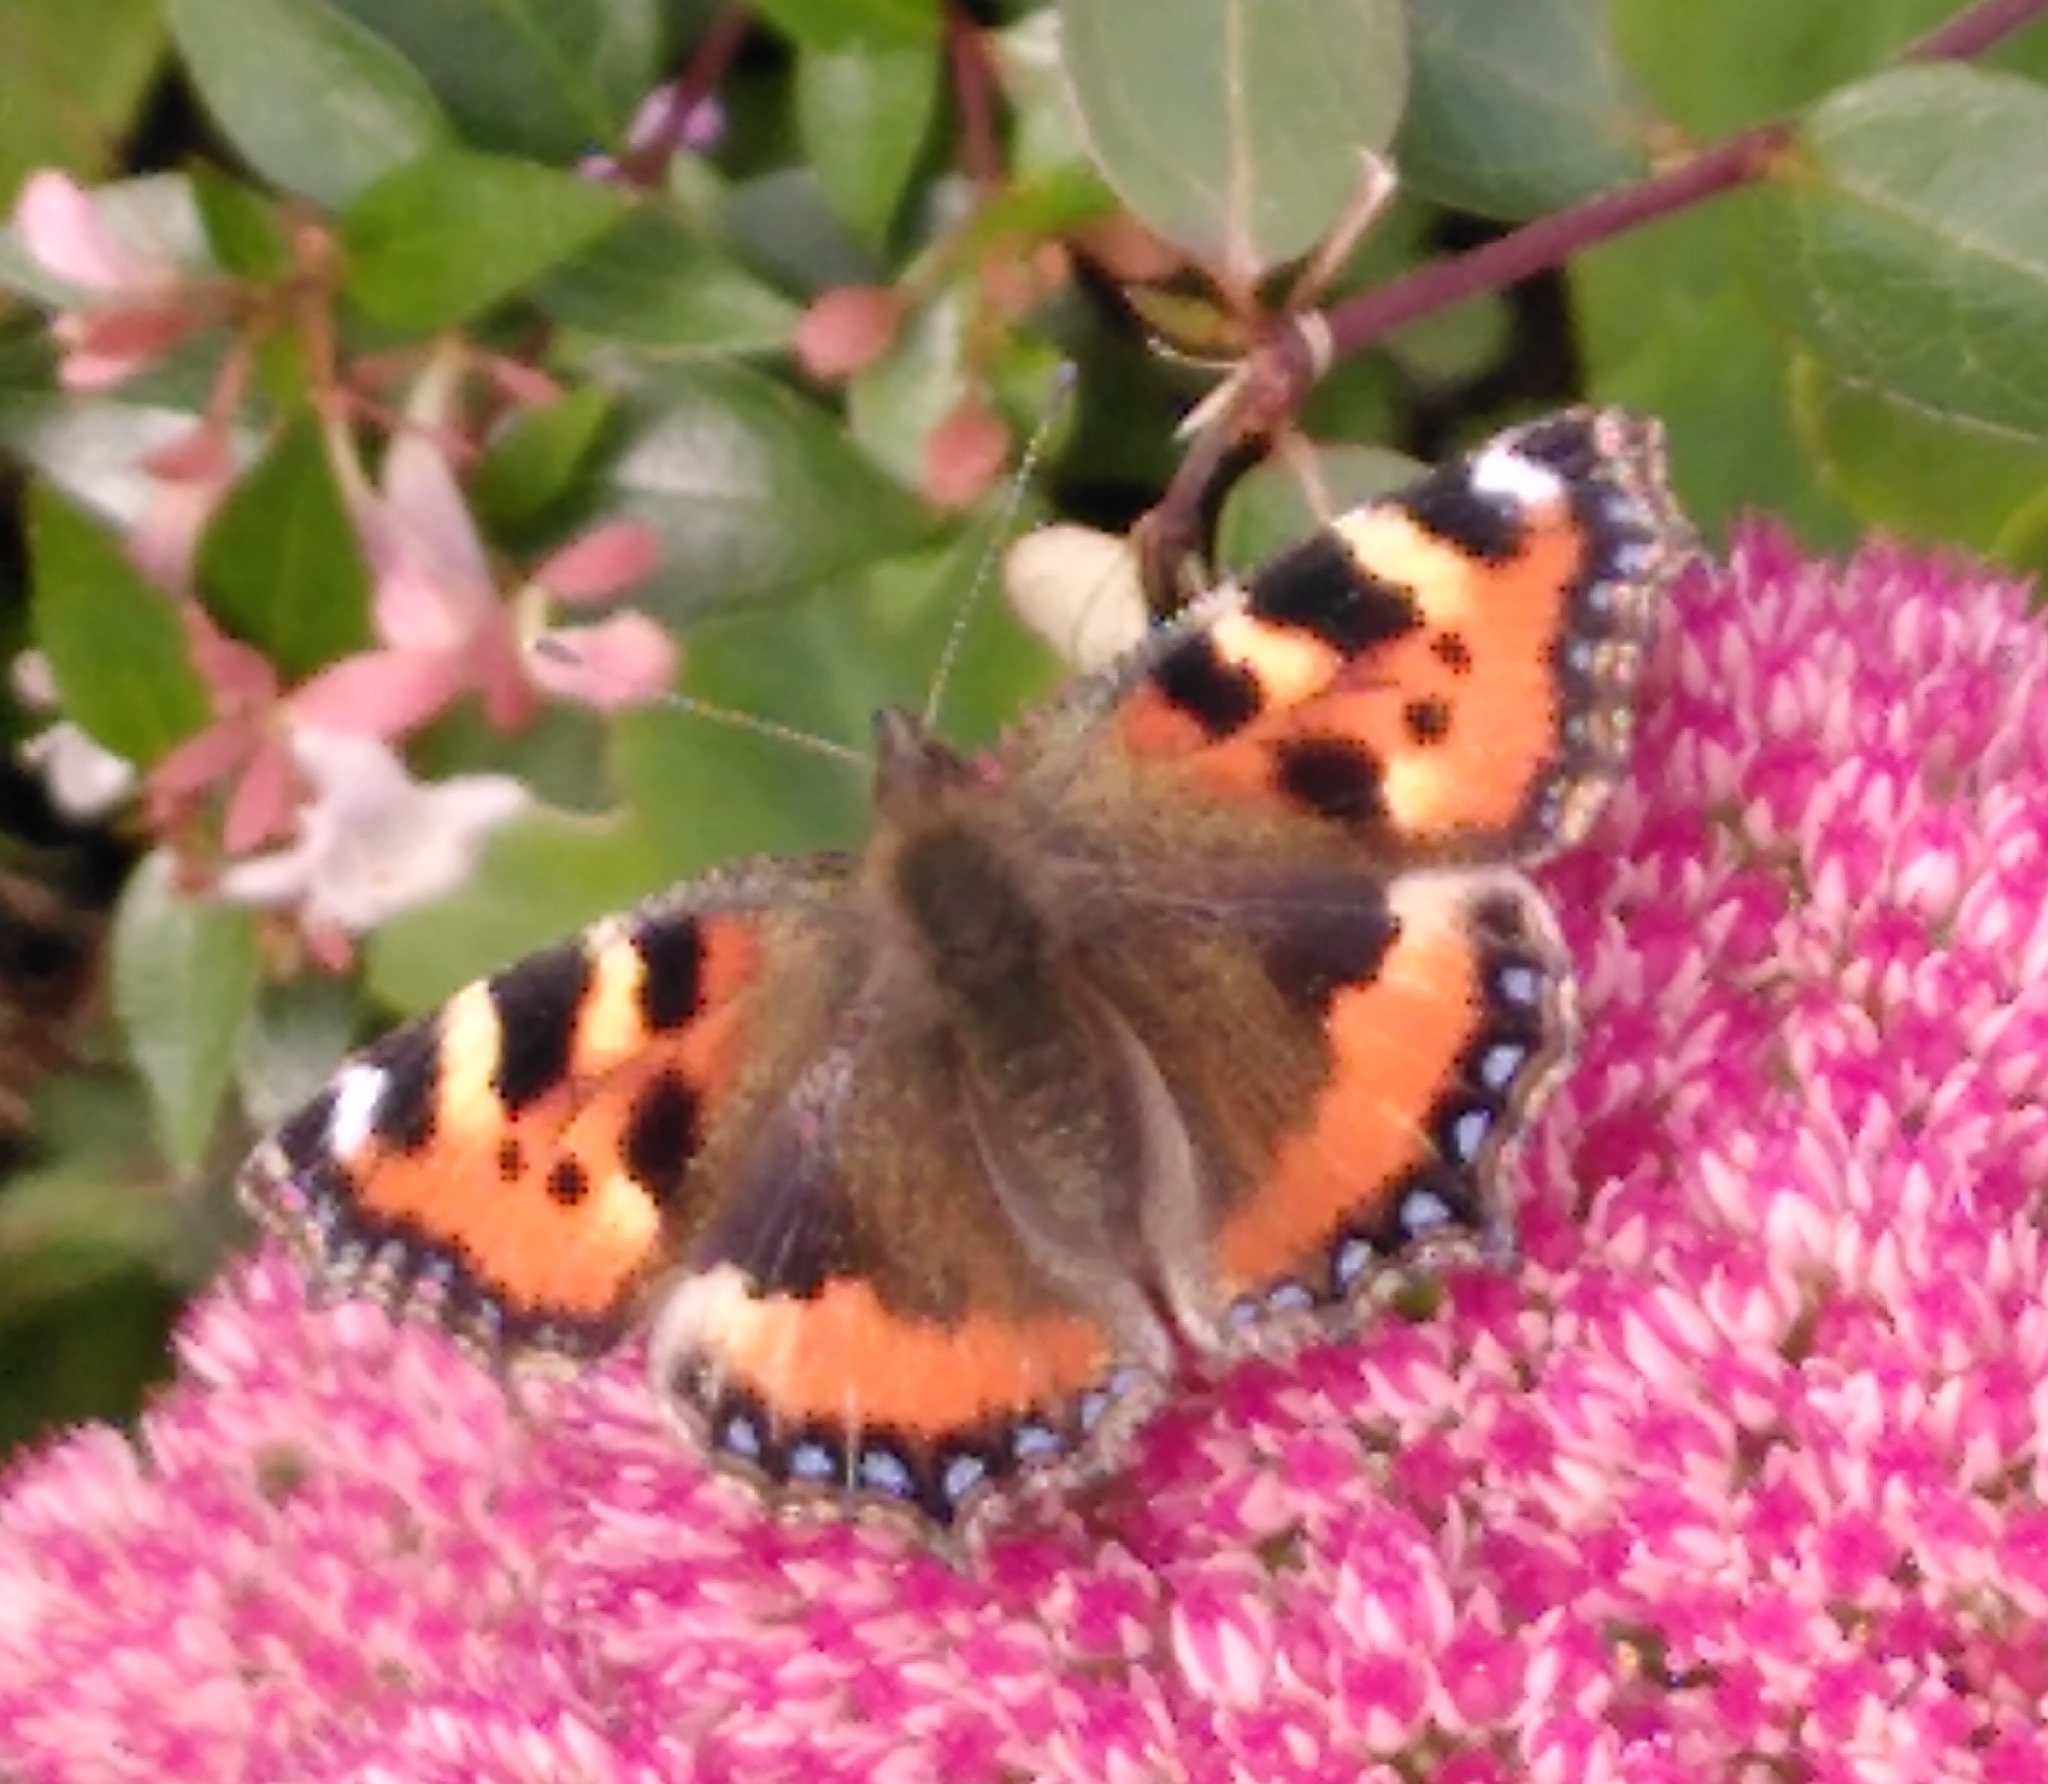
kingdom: Animalia
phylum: Arthropoda
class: Insecta
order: Lepidoptera
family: Nymphalidae
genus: Aglais
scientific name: Aglais urticae
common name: Small tortoiseshell
